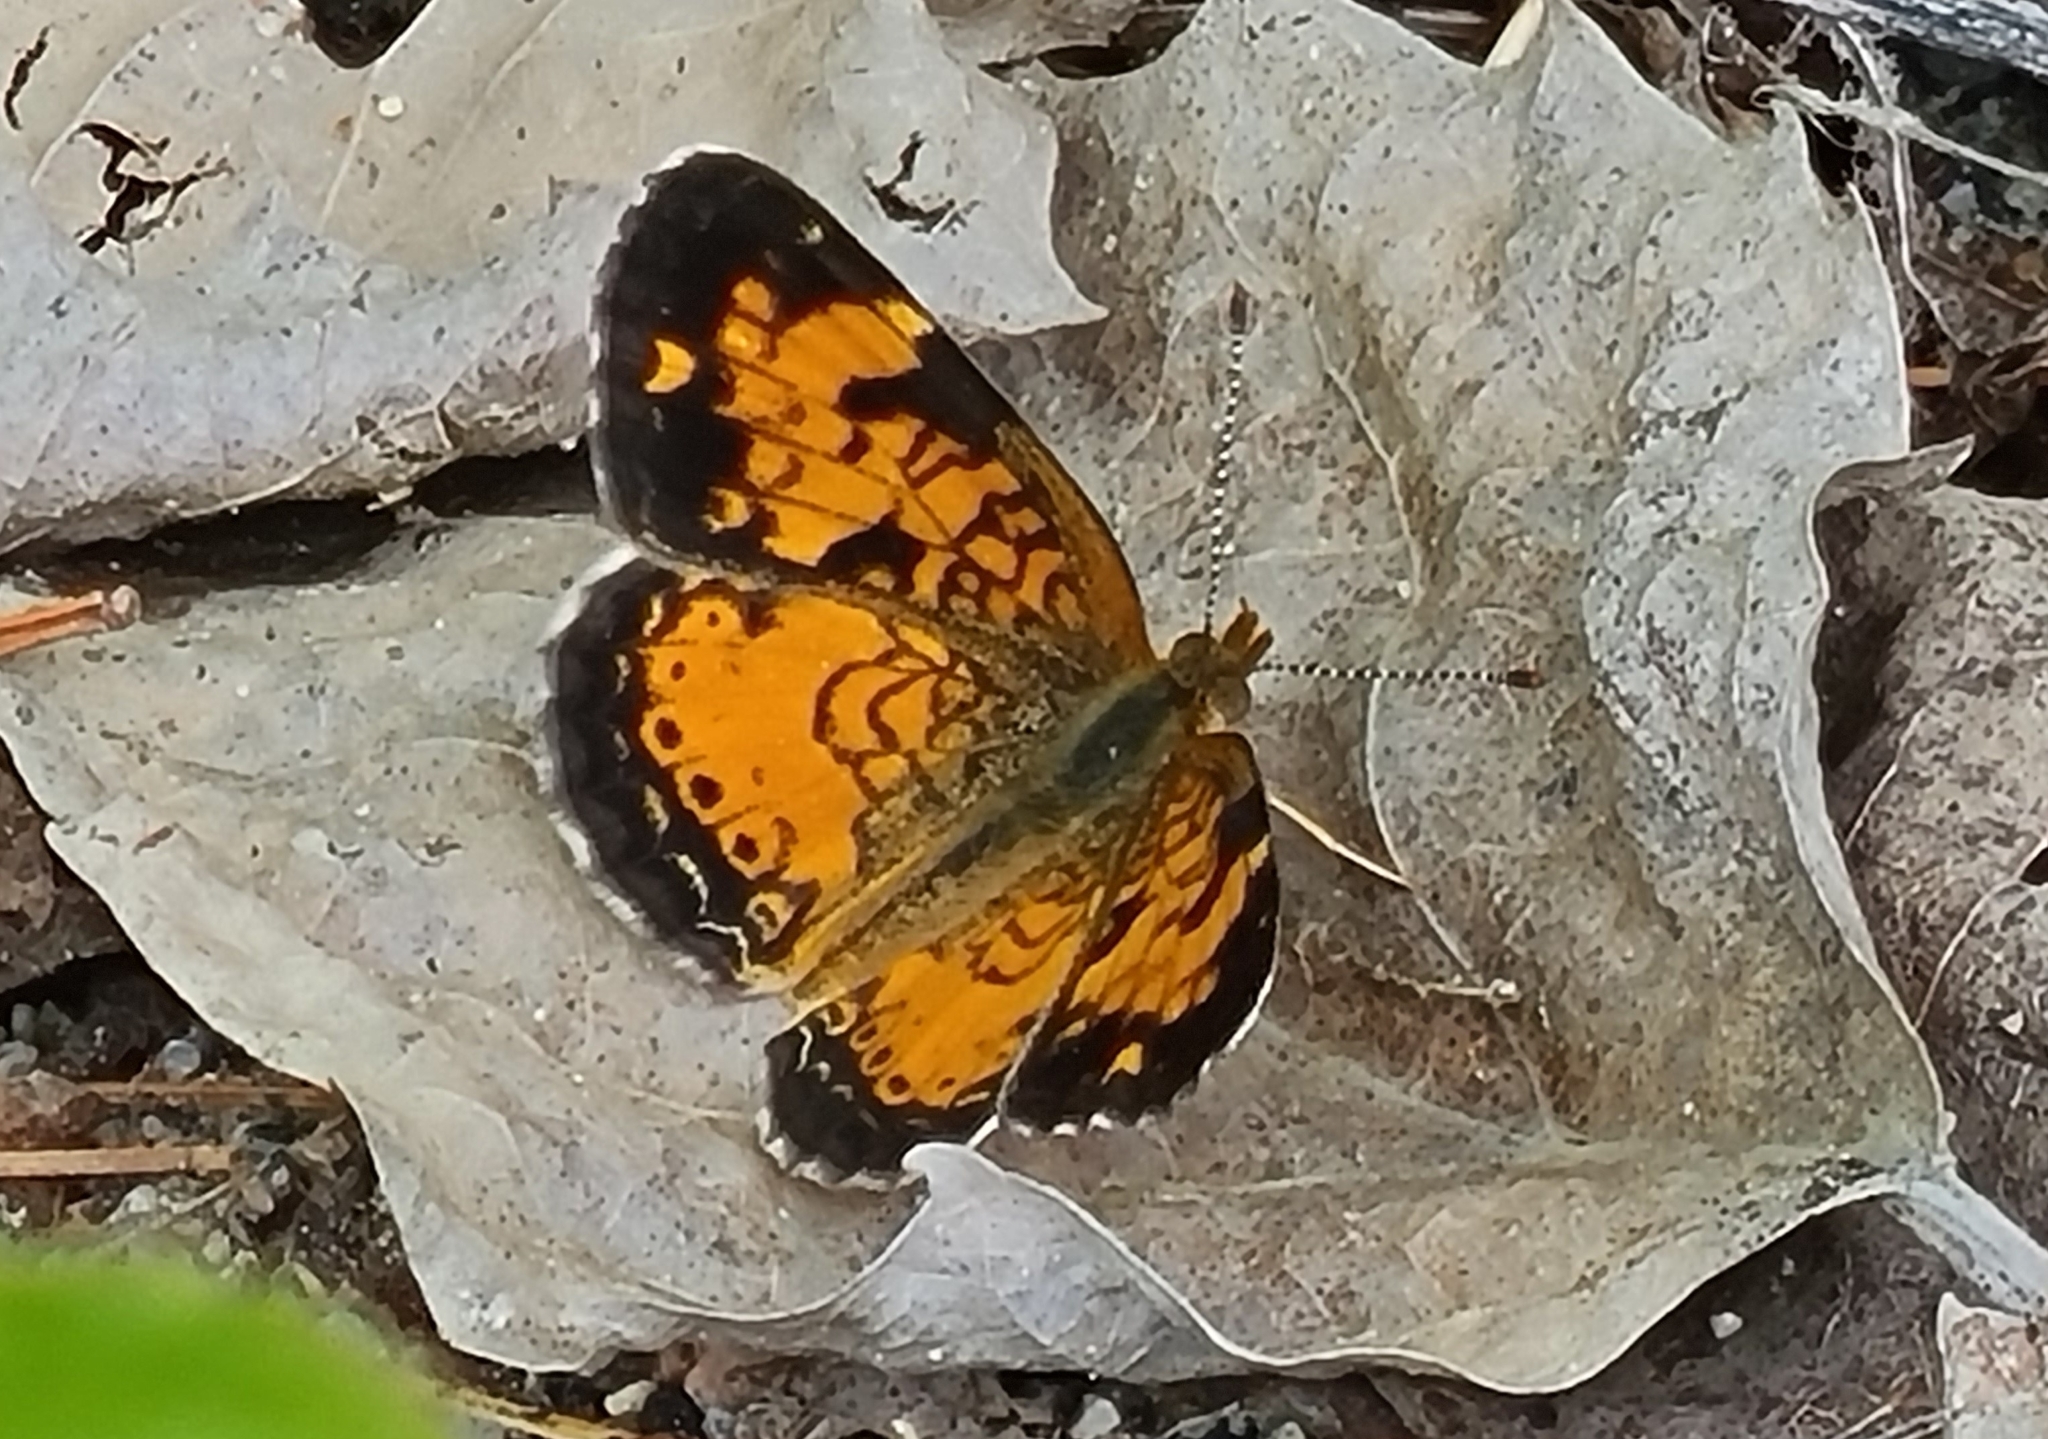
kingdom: Animalia
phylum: Arthropoda
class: Insecta
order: Lepidoptera
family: Nymphalidae
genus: Phyciodes
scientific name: Phyciodes tharos
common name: Pearl crescent
